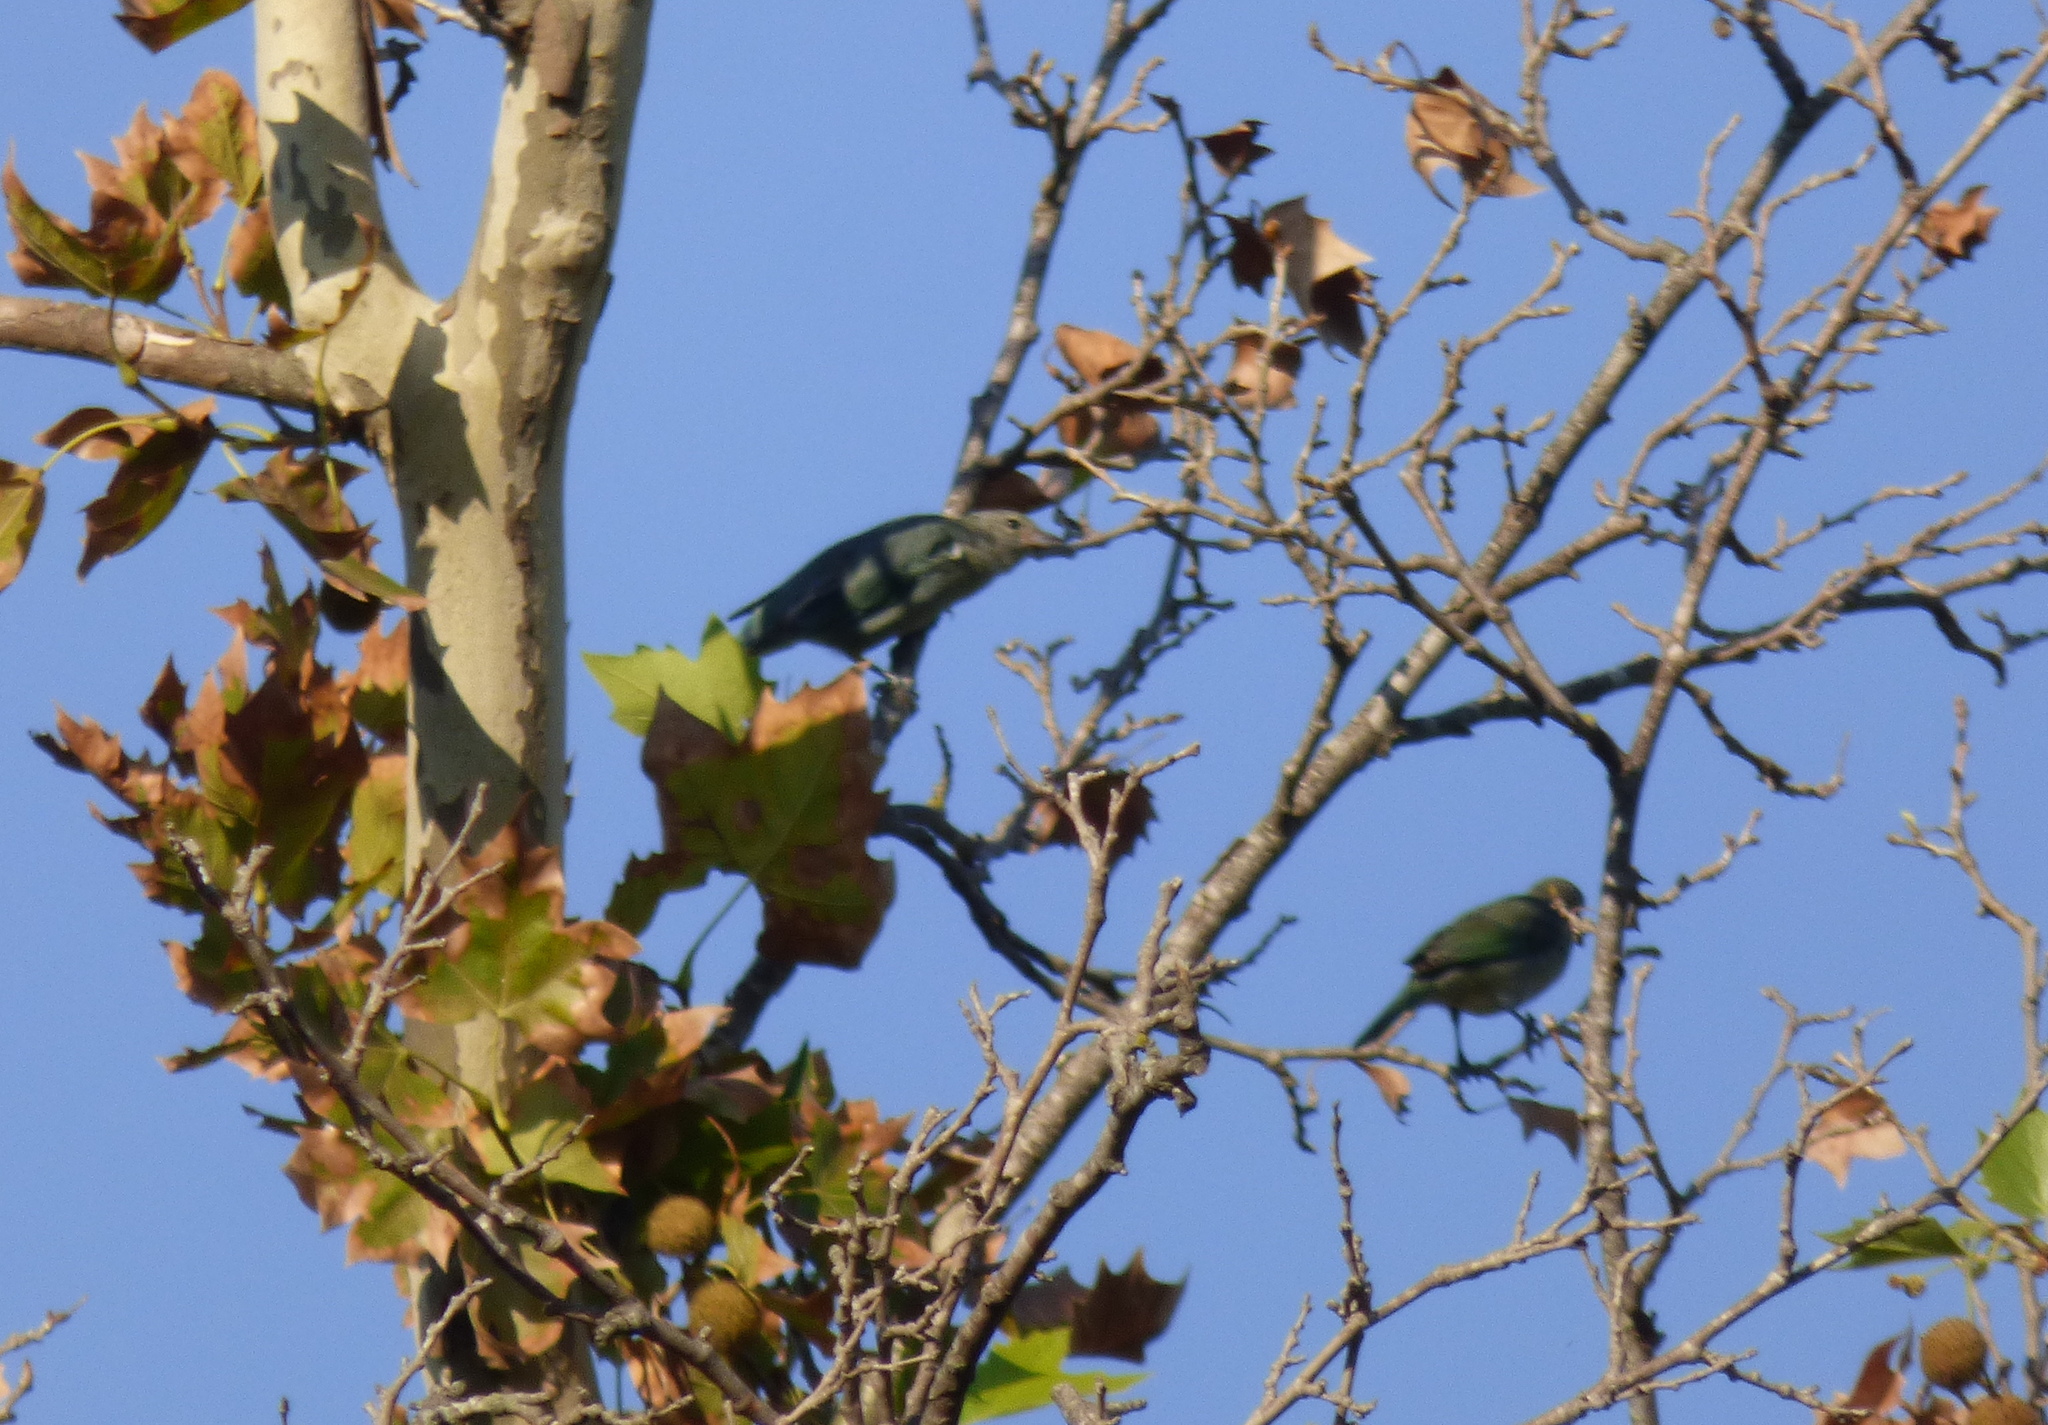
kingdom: Animalia
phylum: Chordata
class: Aves
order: Passeriformes
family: Thraupidae
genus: Thraupis
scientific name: Thraupis sayaca
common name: Sayaca tanager
